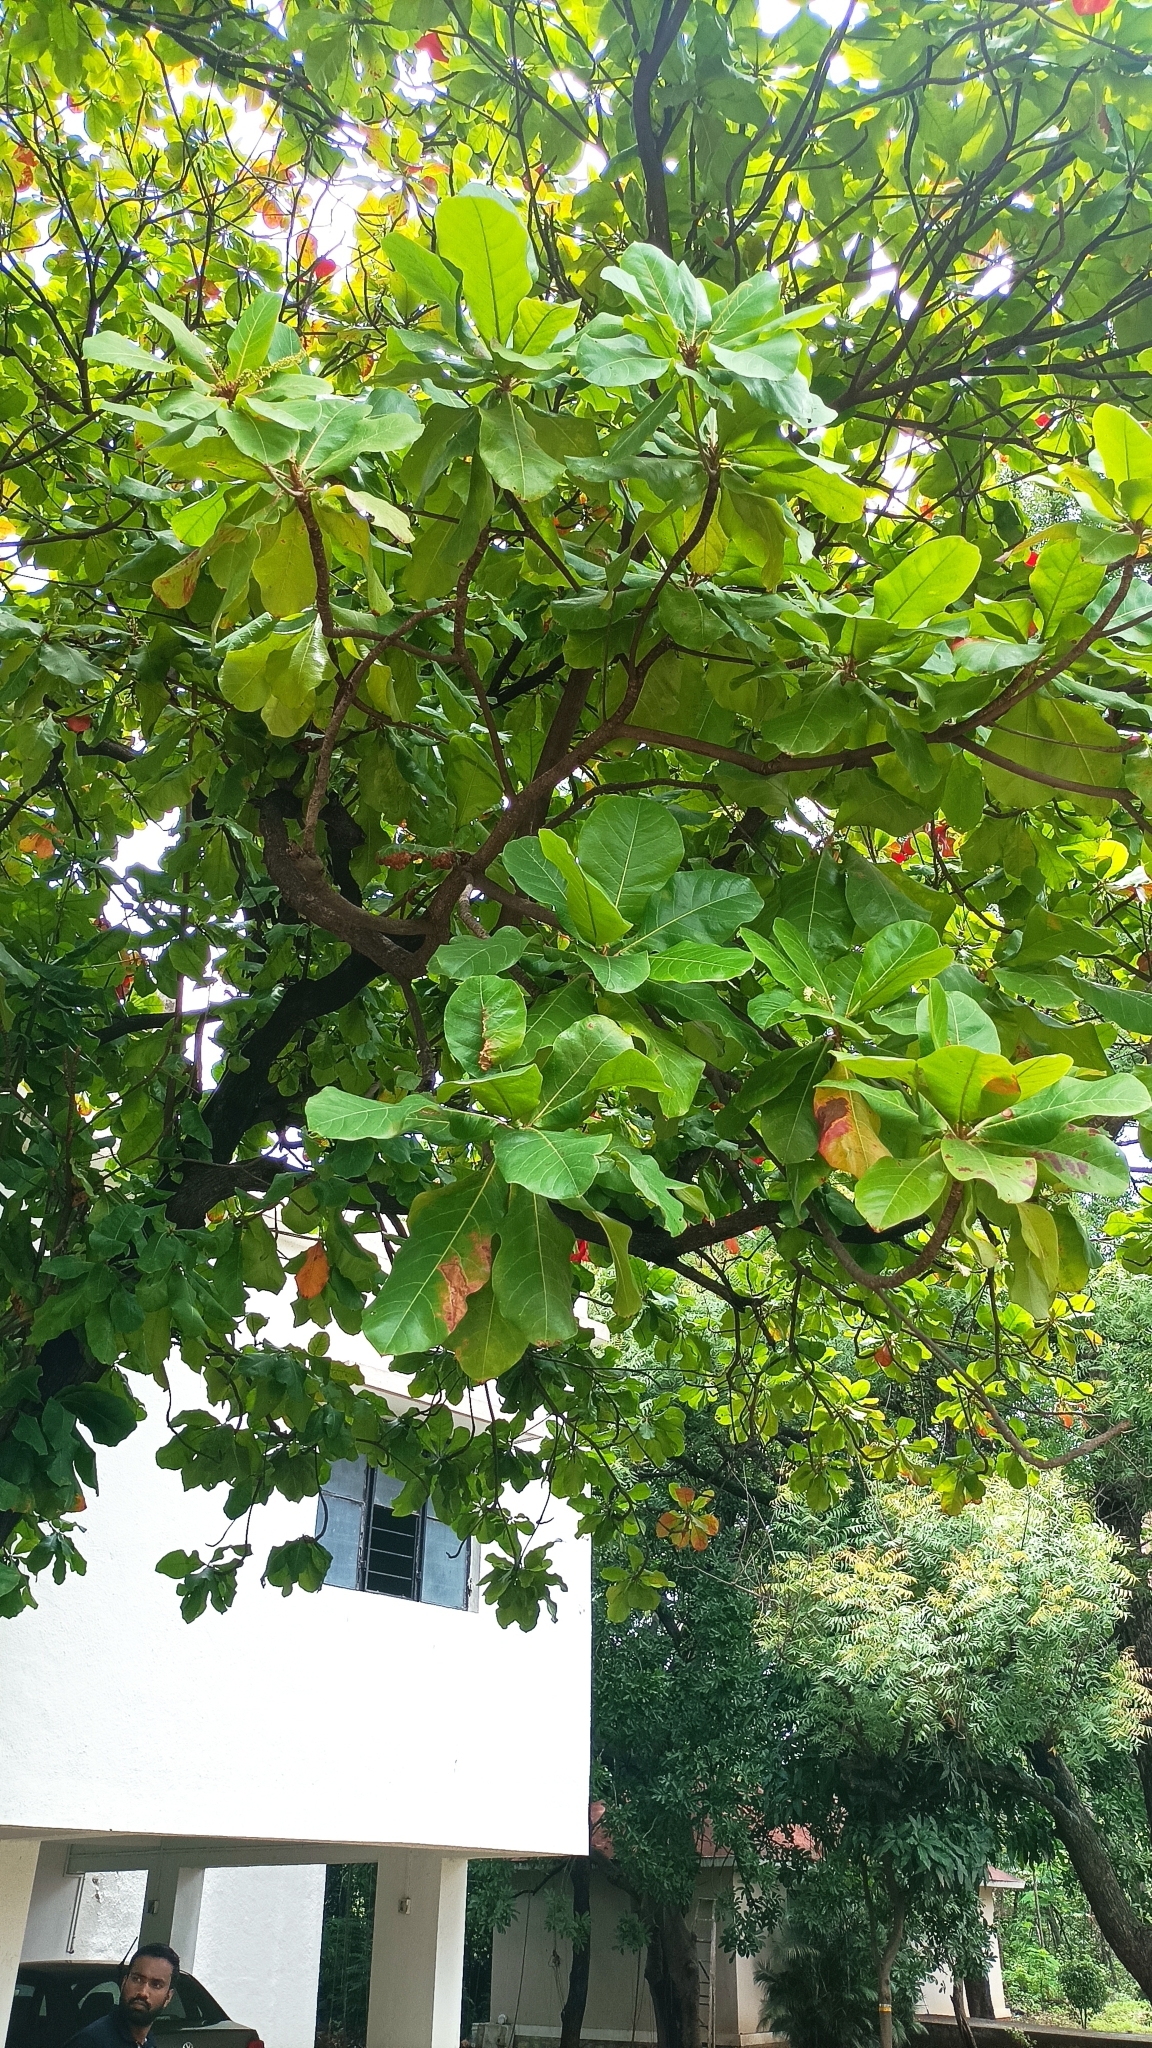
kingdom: Plantae
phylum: Tracheophyta
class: Magnoliopsida
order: Myrtales
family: Combretaceae
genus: Terminalia
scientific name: Terminalia catappa
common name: Tropical almond
